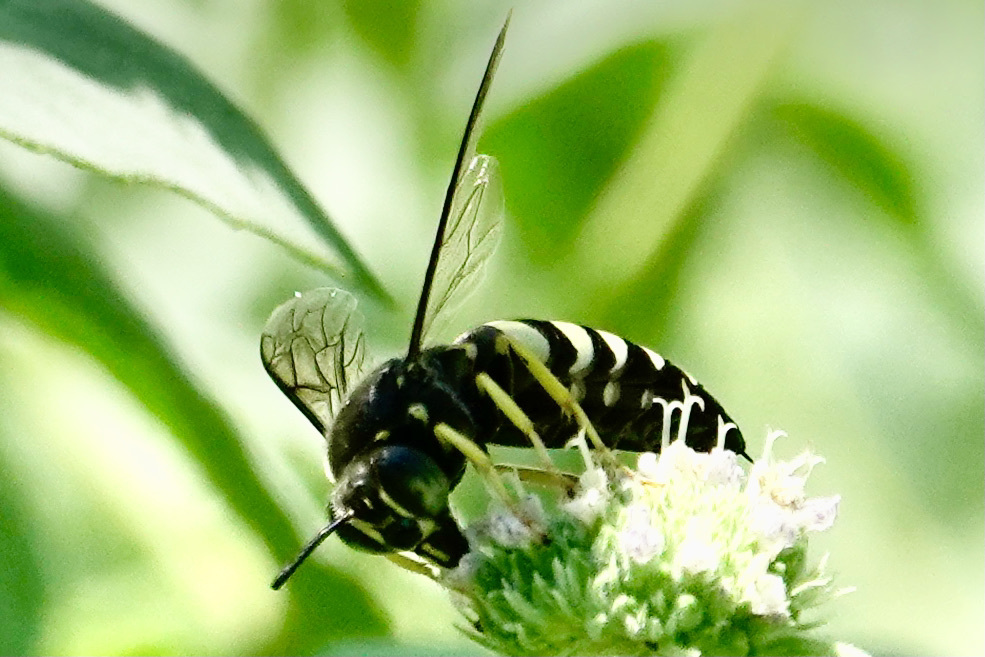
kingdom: Animalia
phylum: Arthropoda
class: Insecta
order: Hymenoptera
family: Crabronidae
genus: Bicyrtes
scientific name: Bicyrtes quadrifasciatus
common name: Four-banded stink bug hunter wasp
